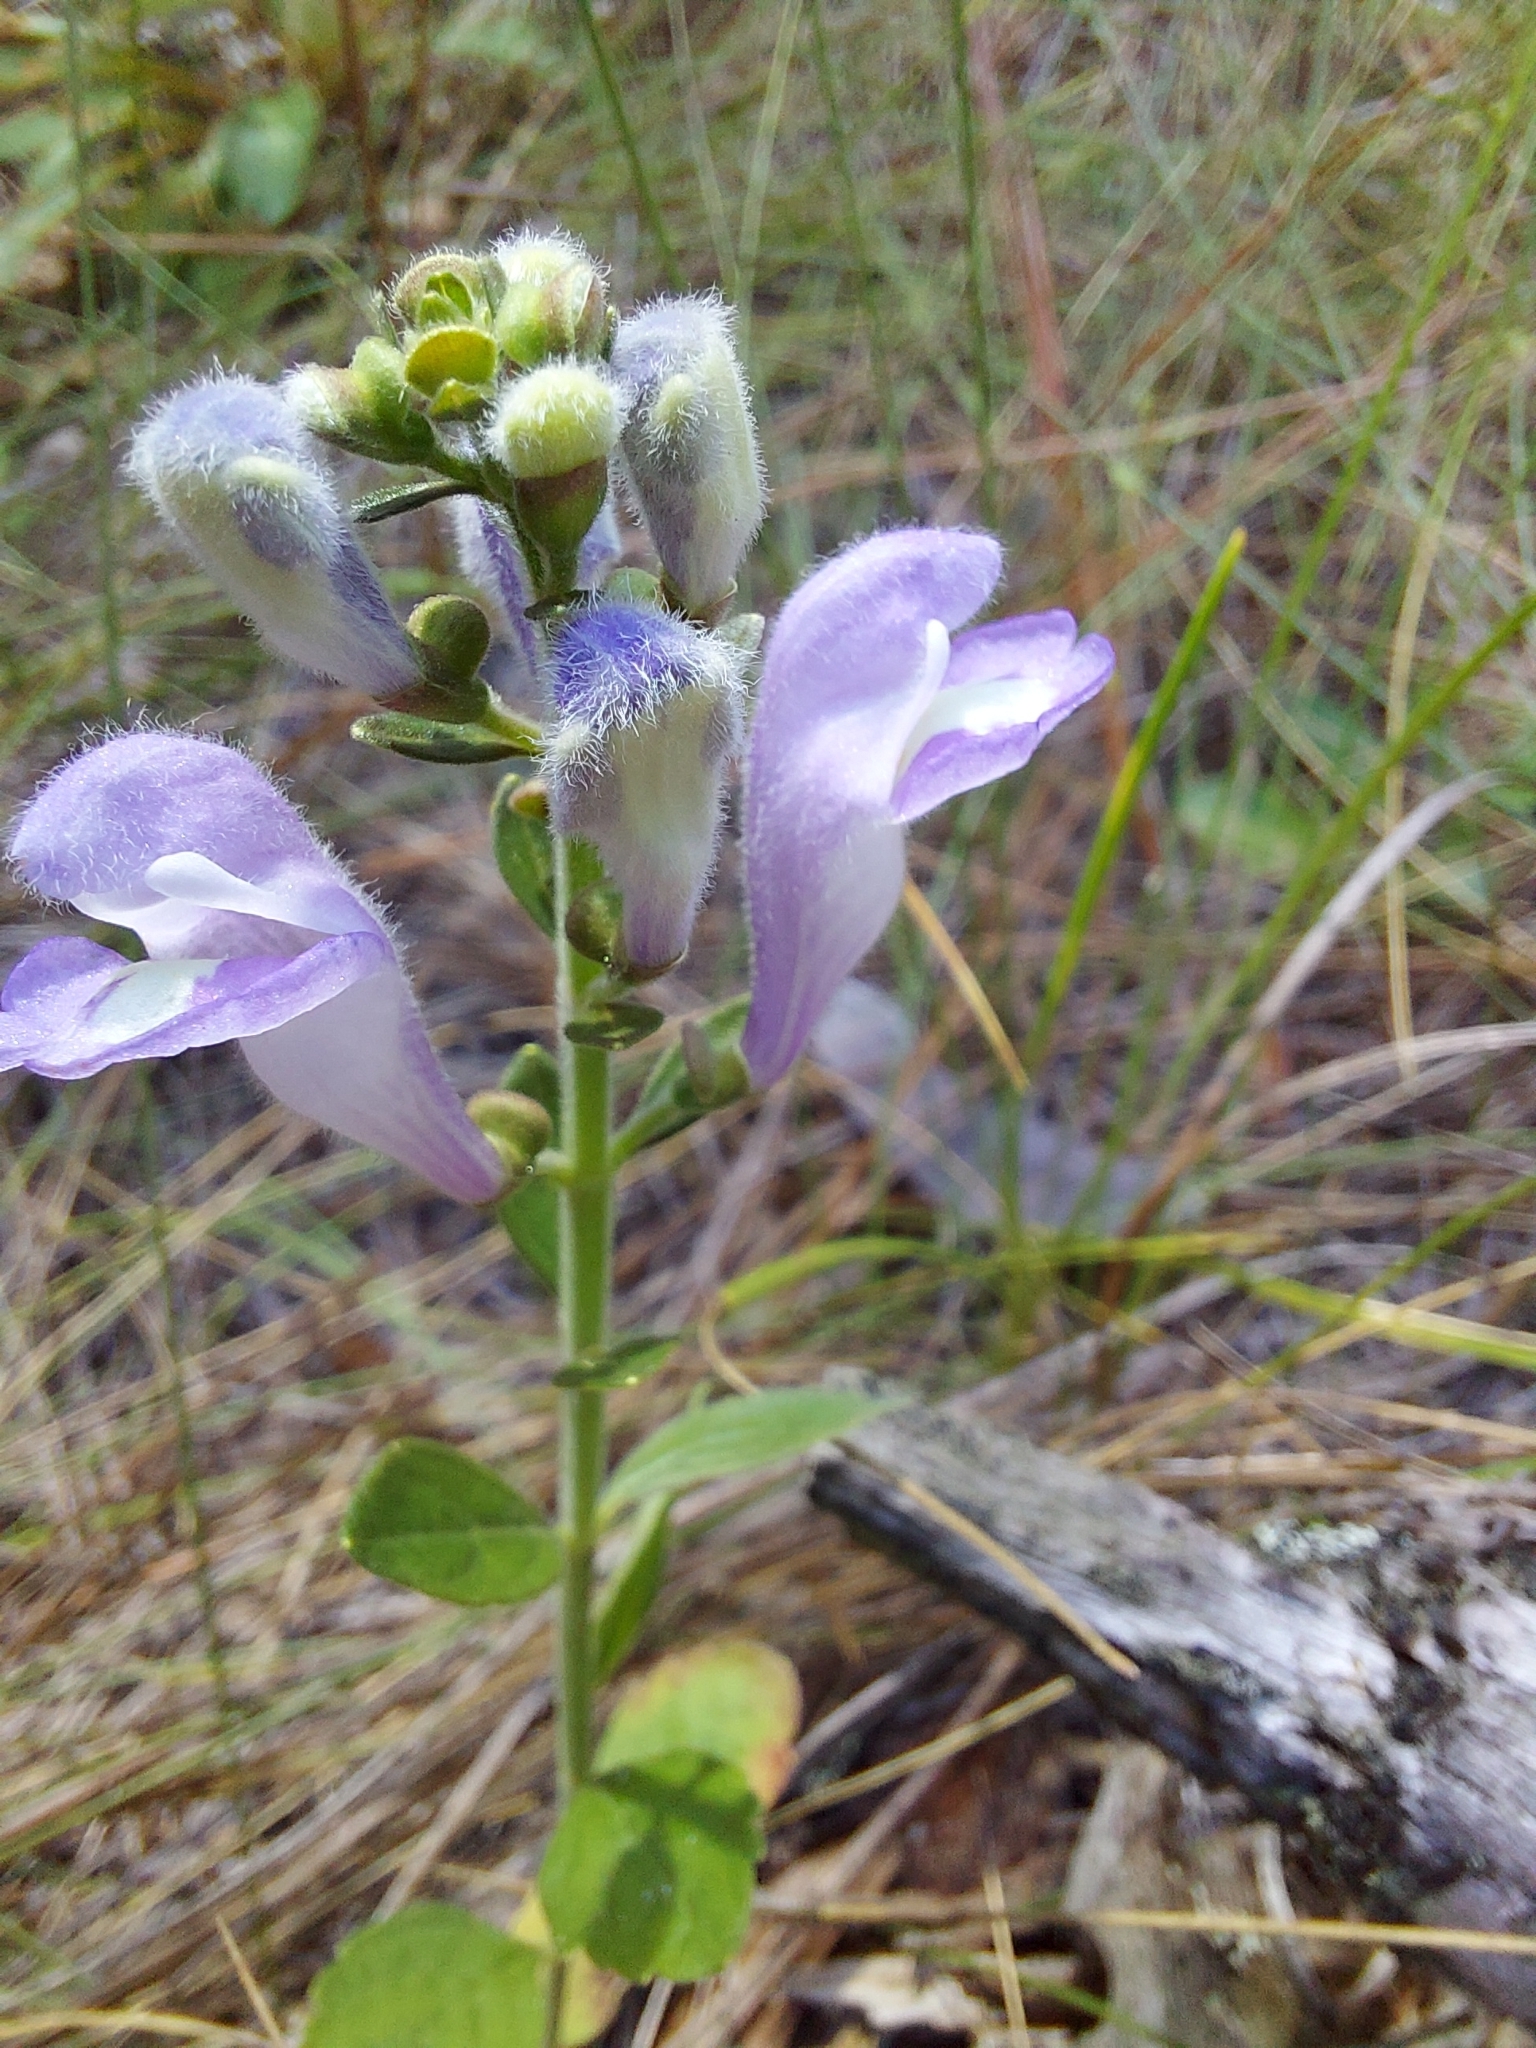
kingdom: Plantae
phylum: Tracheophyta
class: Magnoliopsida
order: Lamiales
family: Lamiaceae
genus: Scutellaria
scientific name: Scutellaria arenicola
